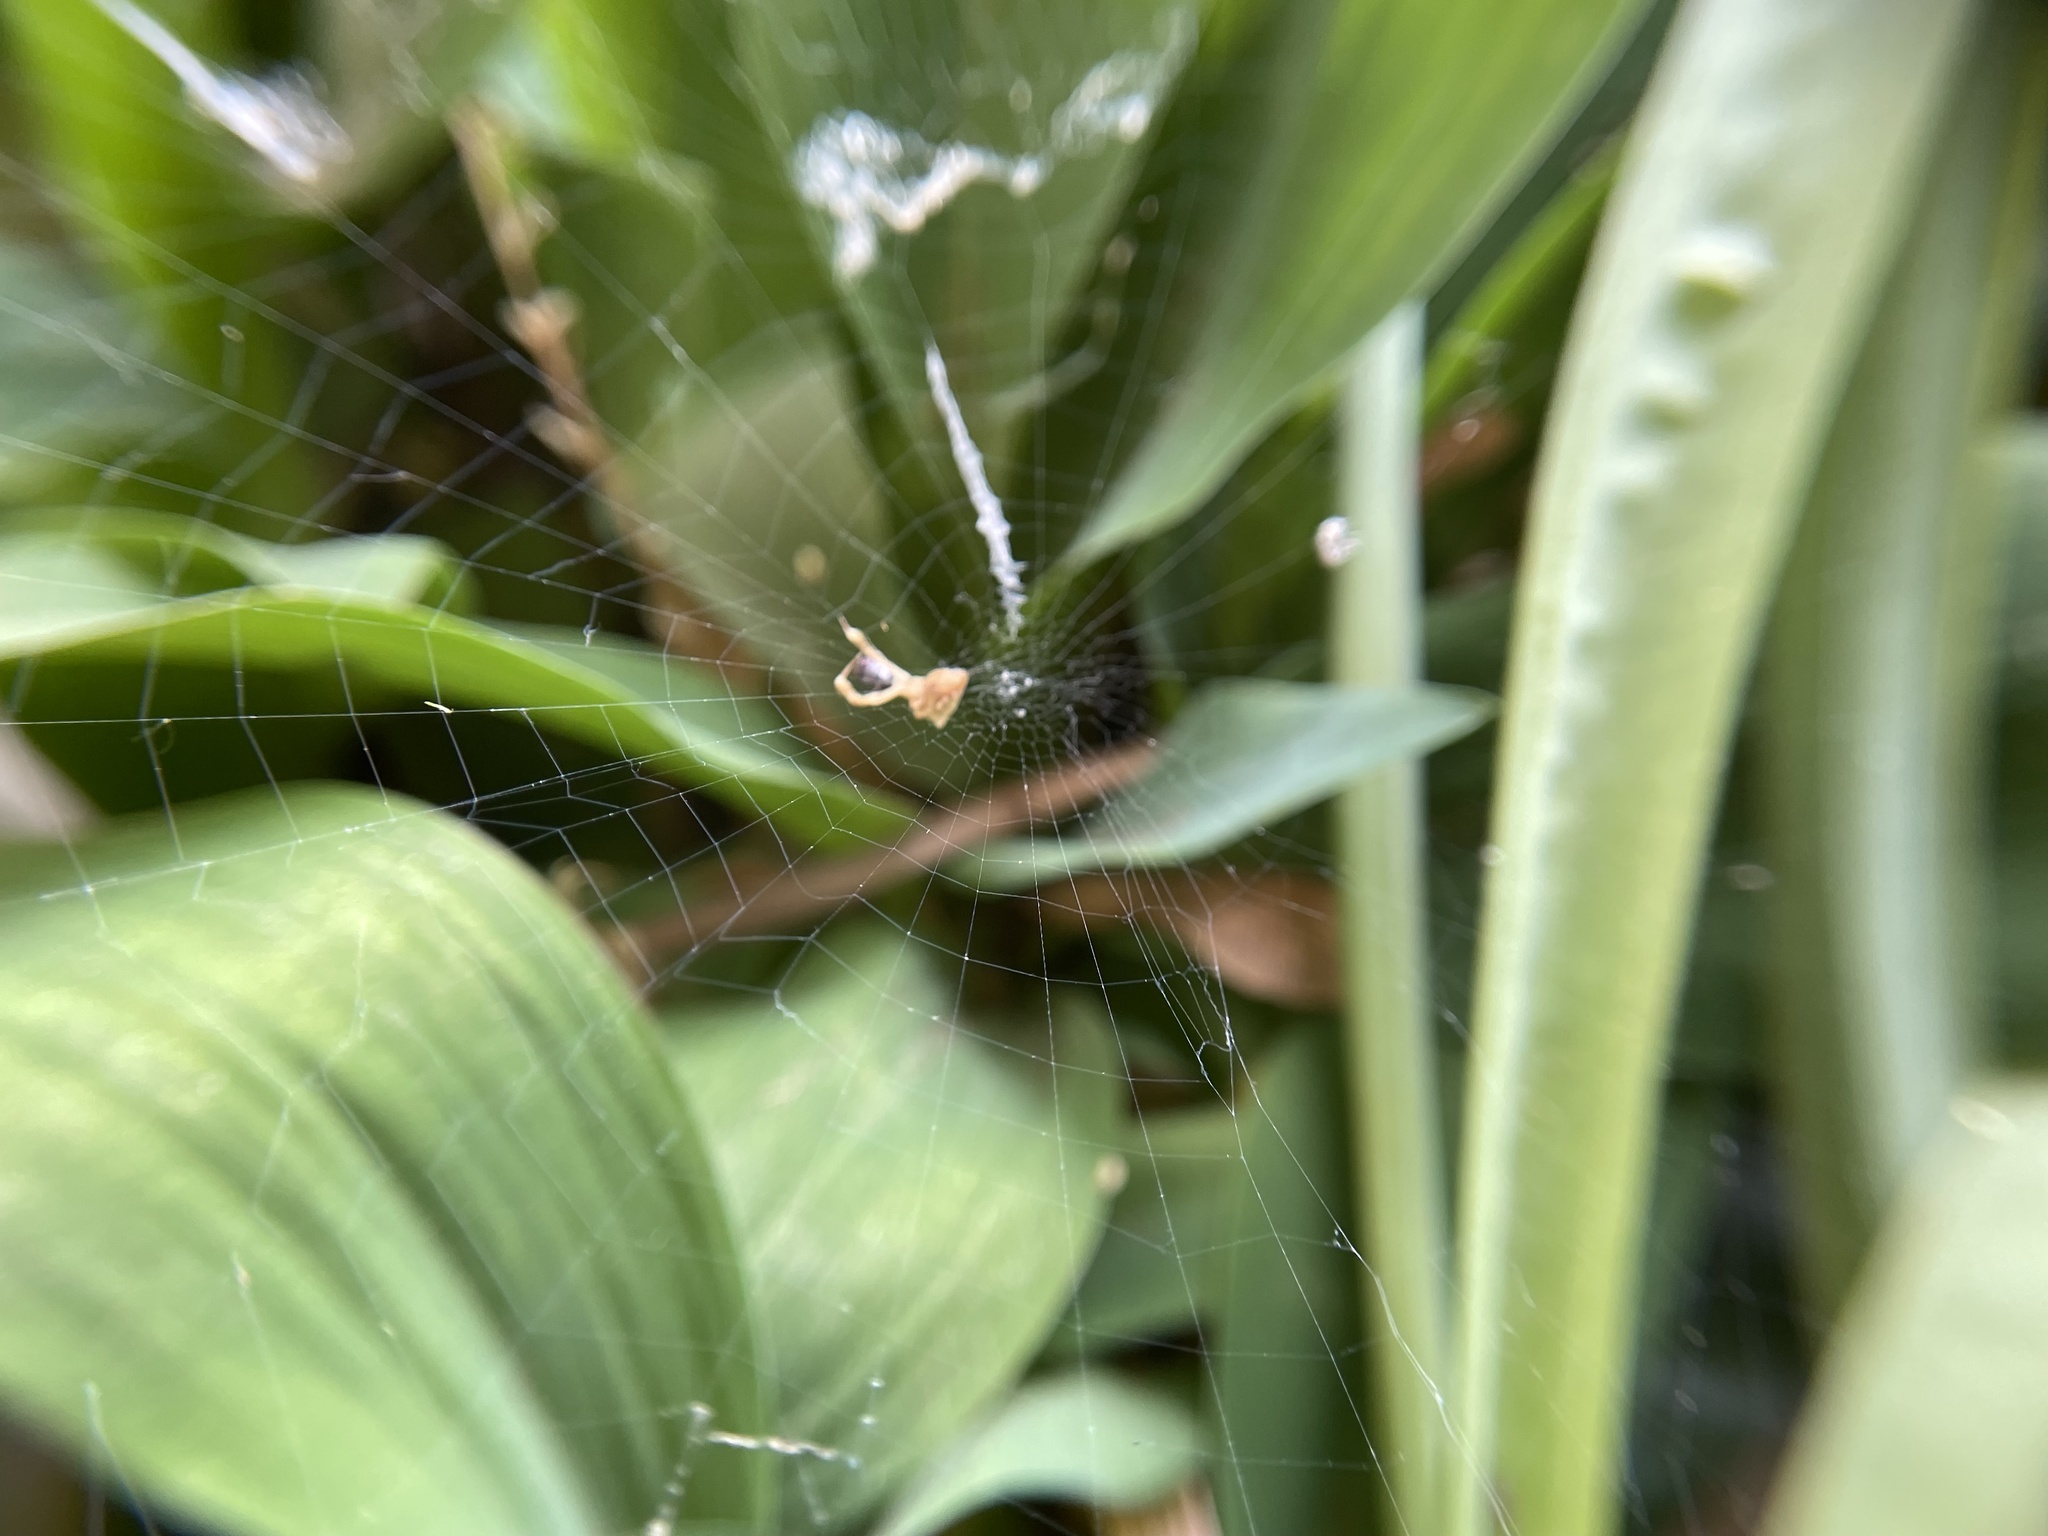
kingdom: Animalia
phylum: Arthropoda
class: Arachnida
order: Araneae
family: Uloboridae
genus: Uloborus
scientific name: Uloborus glomosus
